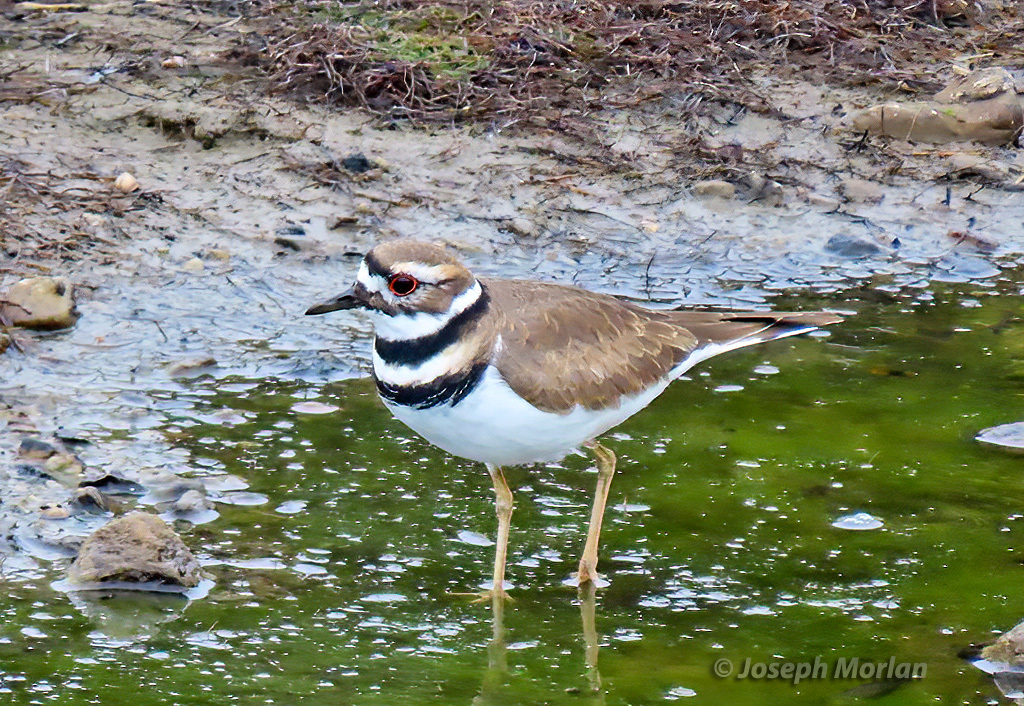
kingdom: Animalia
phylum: Chordata
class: Aves
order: Charadriiformes
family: Charadriidae
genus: Charadrius
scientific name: Charadrius vociferus
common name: Killdeer
